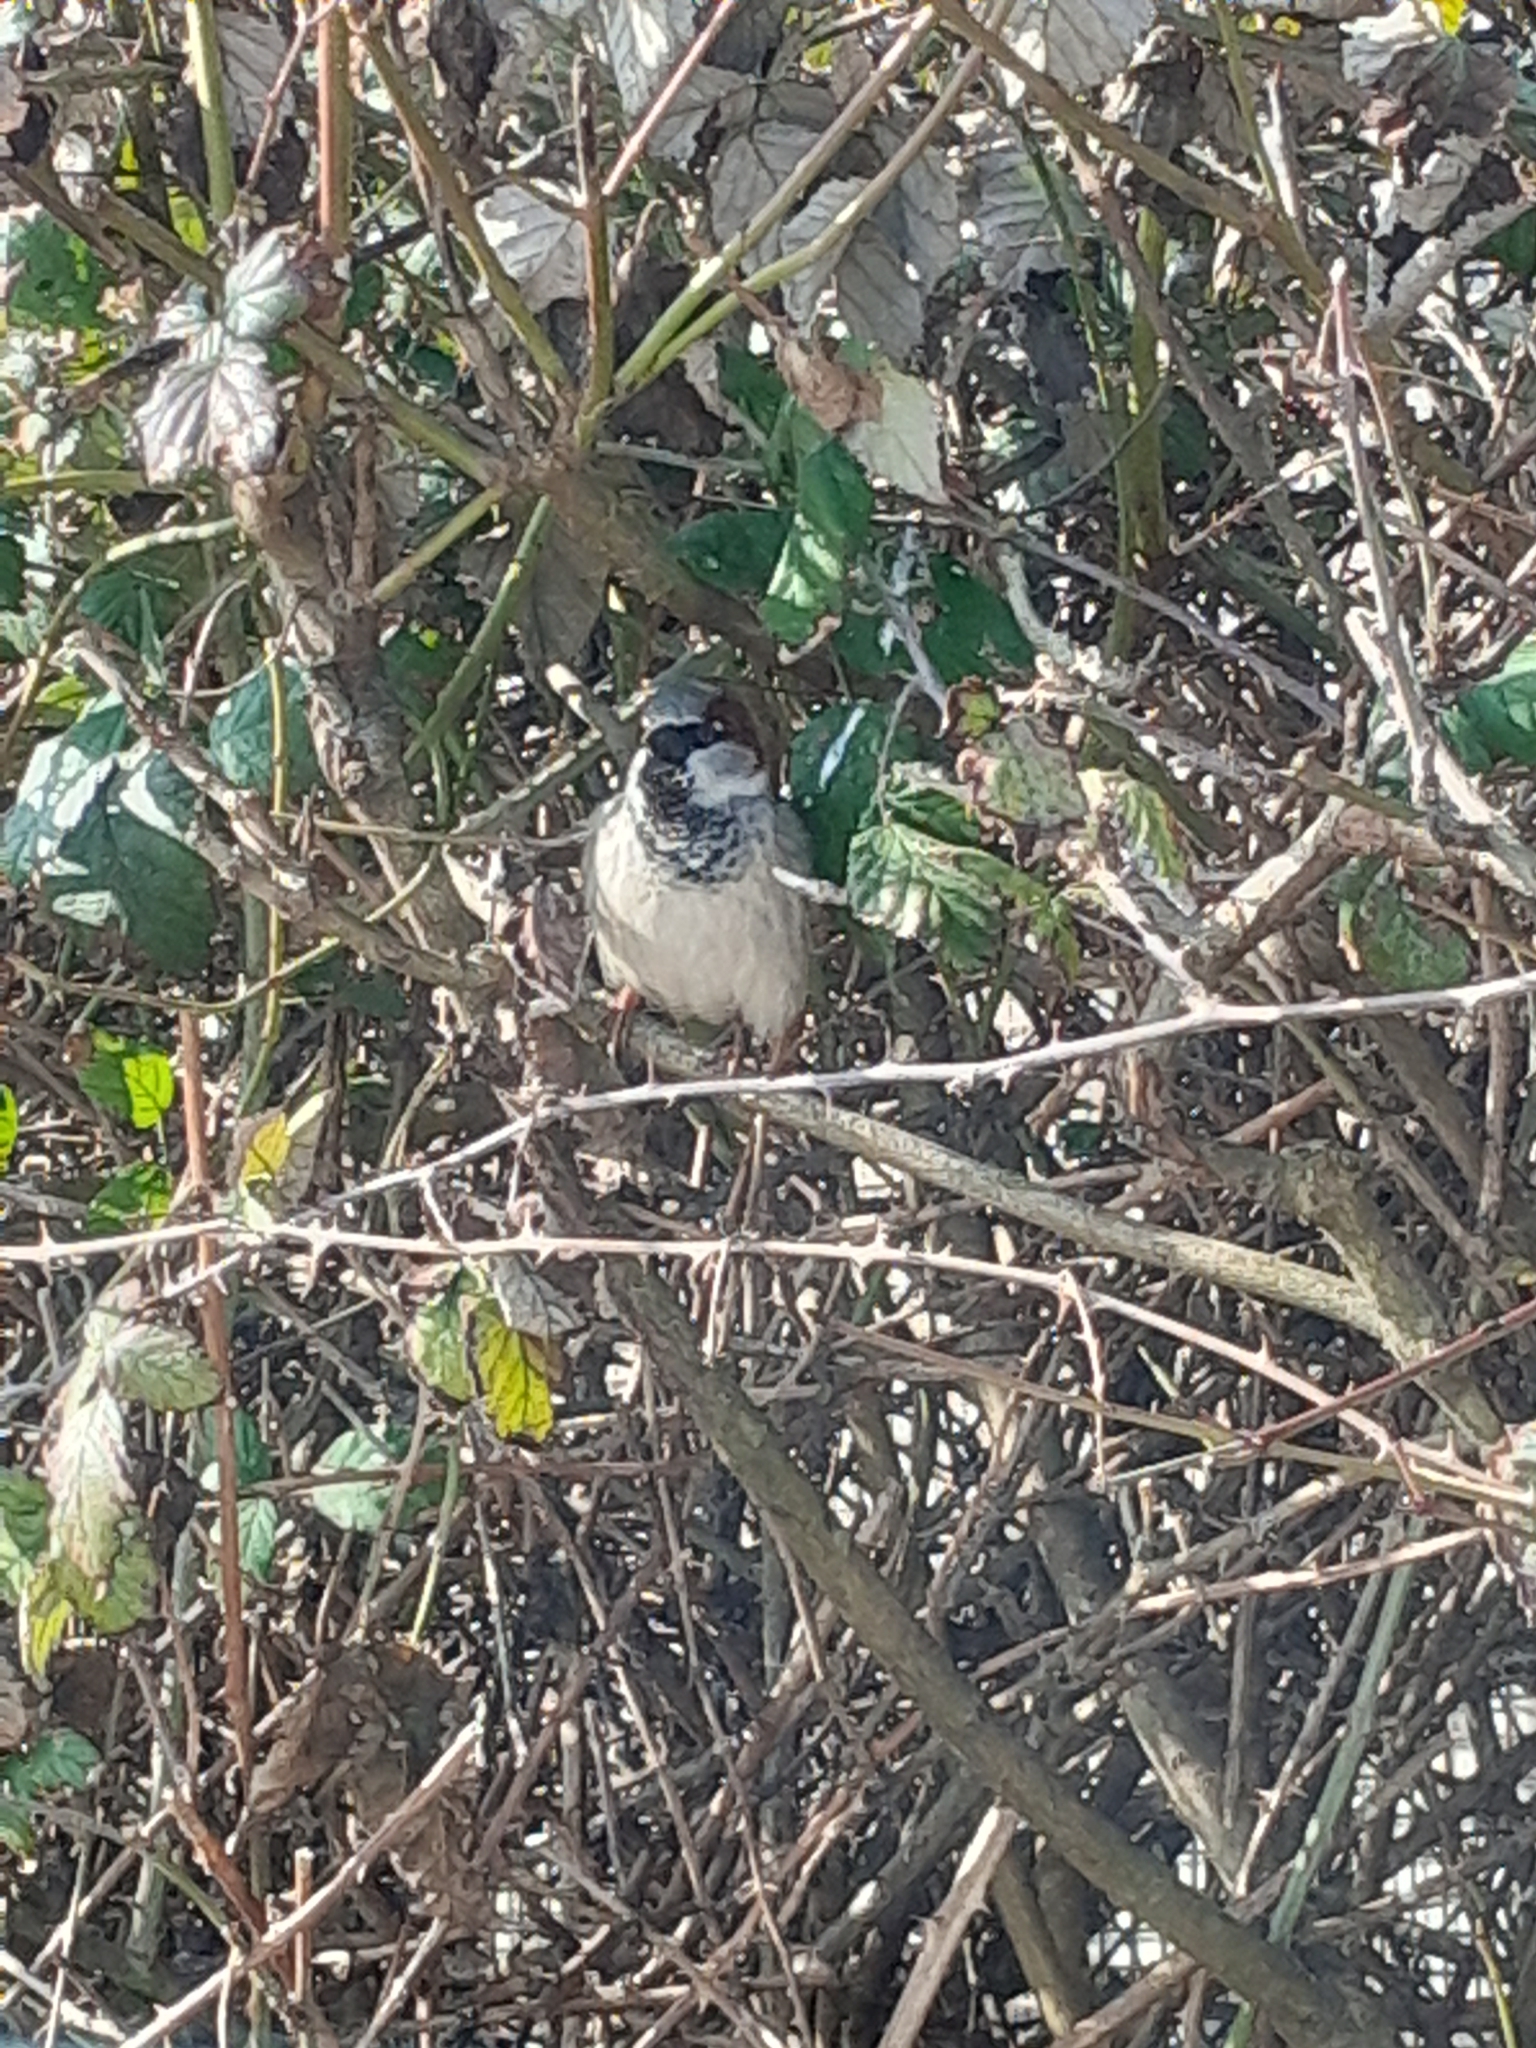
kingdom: Animalia
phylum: Chordata
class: Aves
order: Passeriformes
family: Passeridae
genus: Passer
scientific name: Passer domesticus
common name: House sparrow
